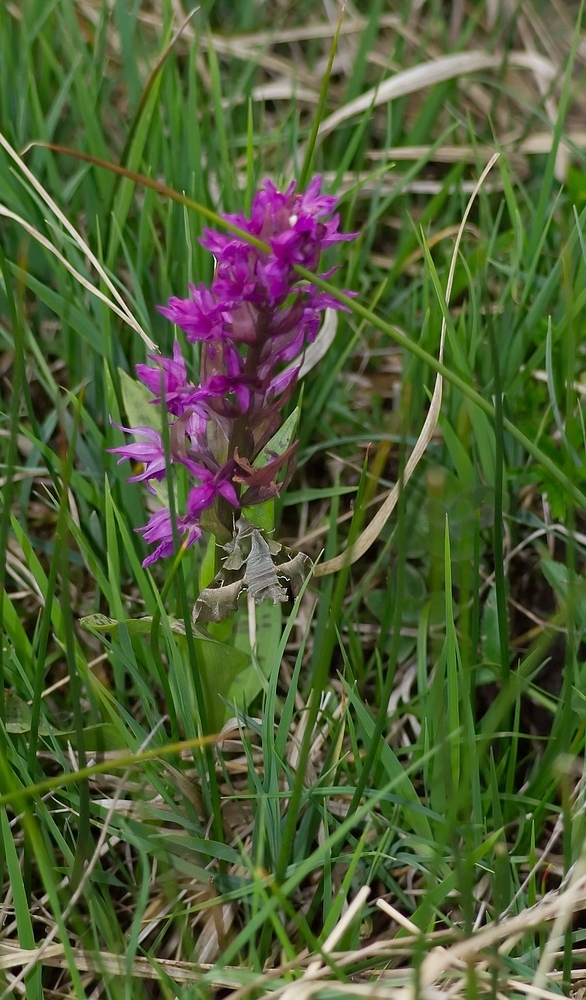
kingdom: Animalia
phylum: Arthropoda
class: Insecta
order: Lepidoptera
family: Sphingidae
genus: Proserpinus
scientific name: Proserpinus proserpina
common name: Willowherb hawkmoth
